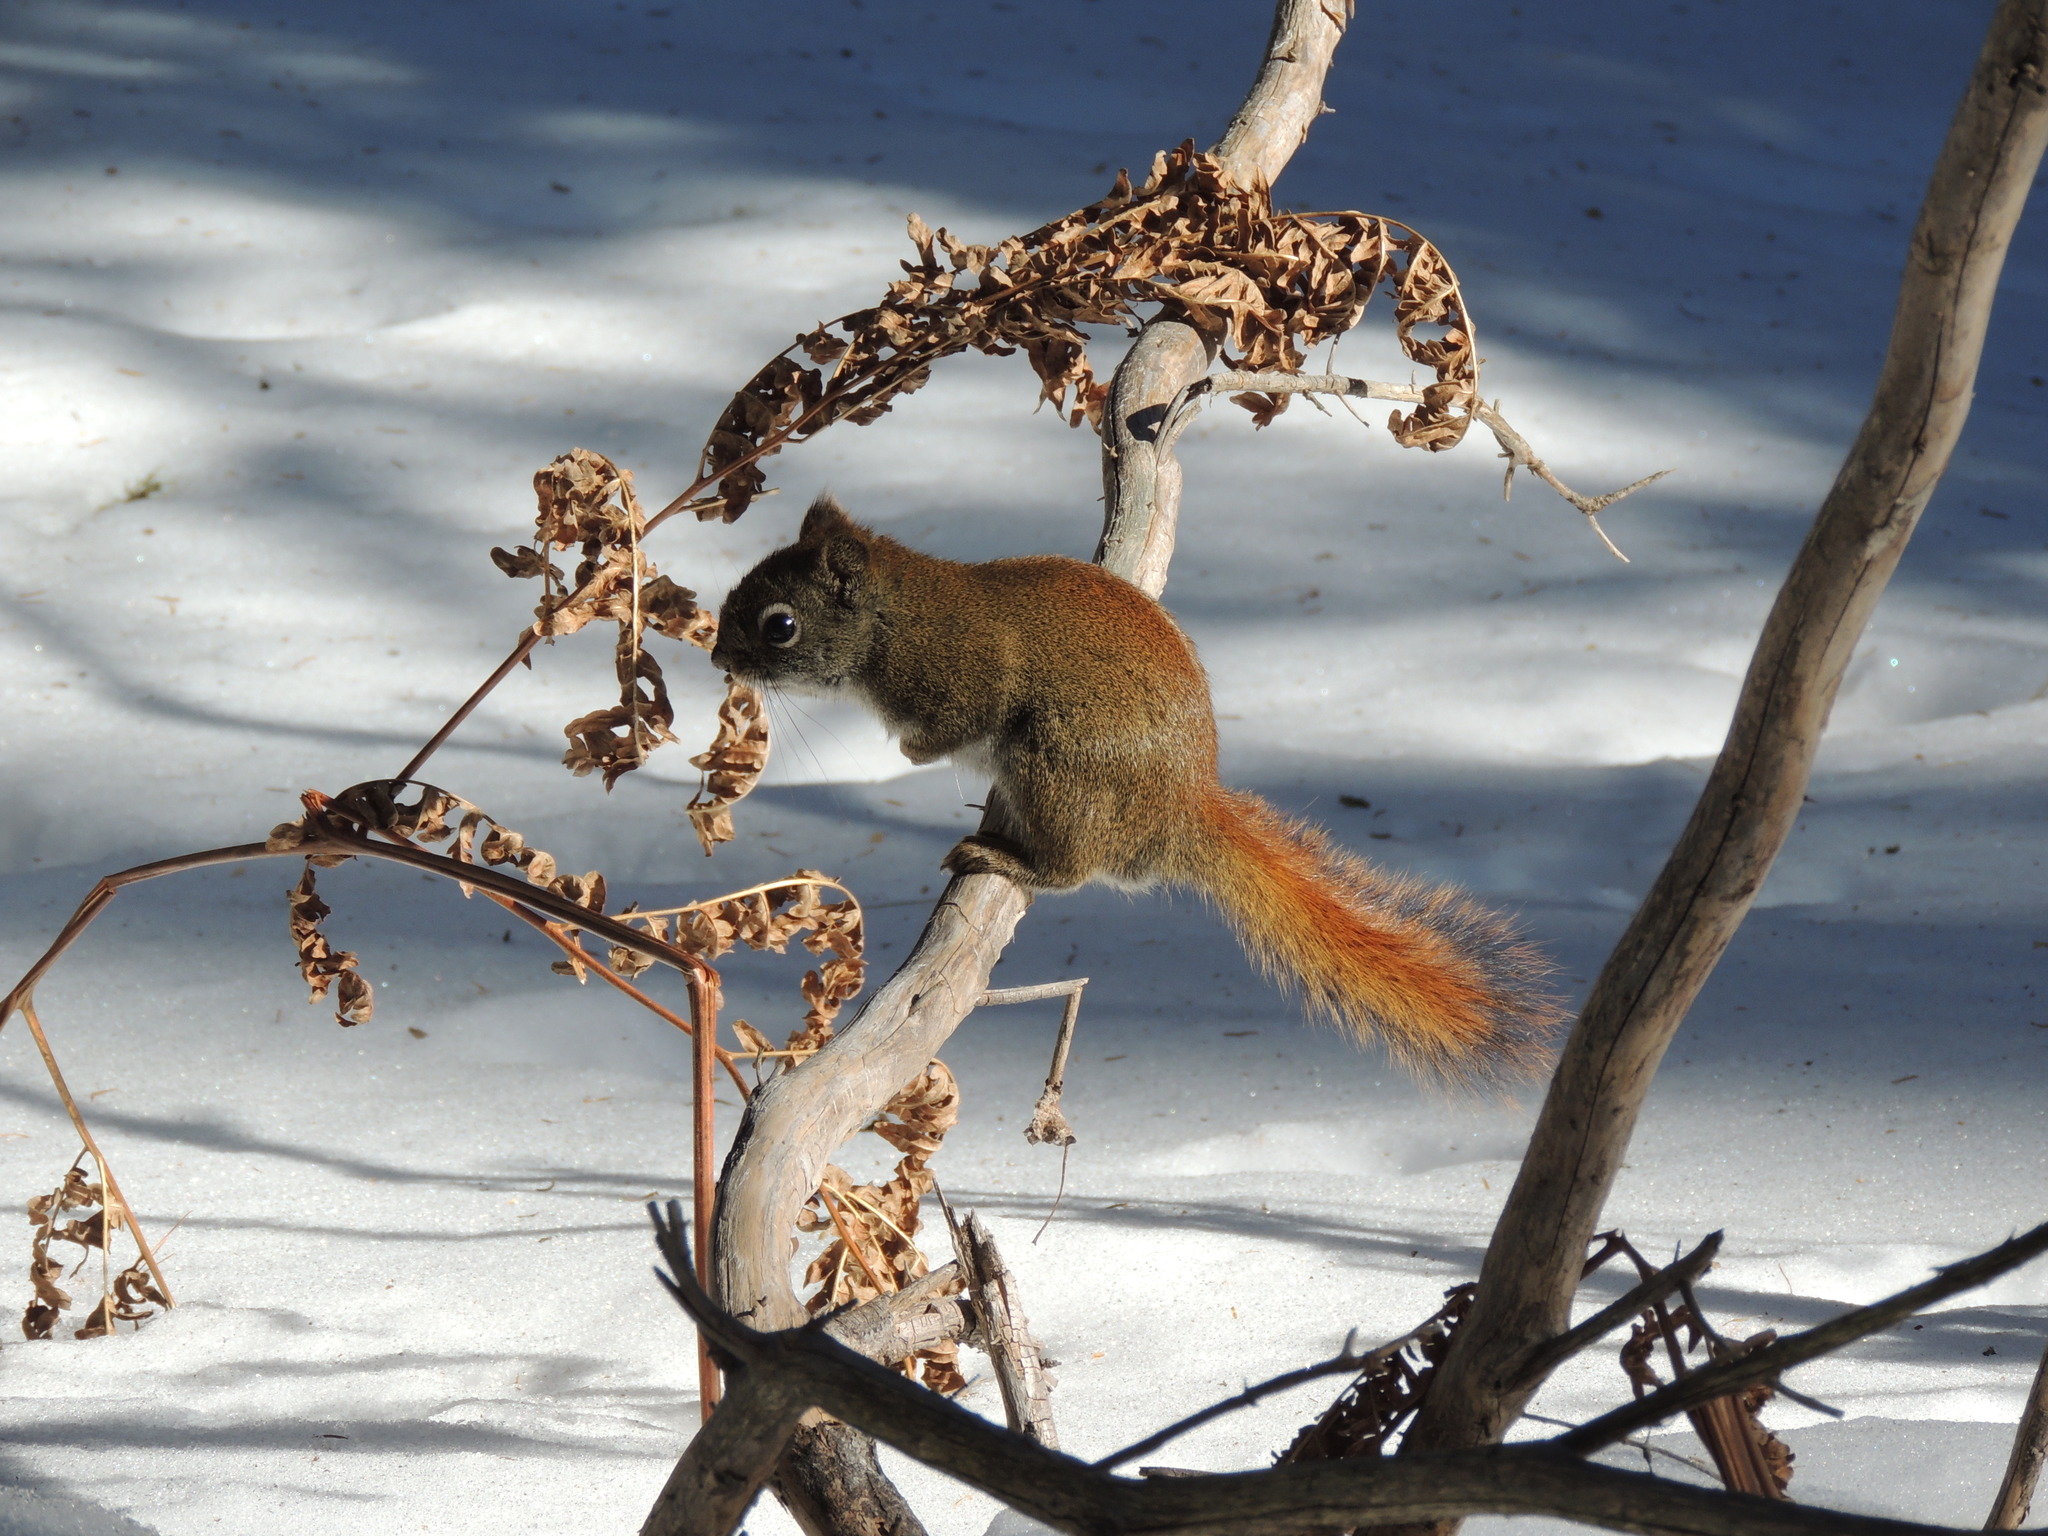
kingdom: Animalia
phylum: Chordata
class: Mammalia
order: Rodentia
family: Sciuridae
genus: Tamiasciurus
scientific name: Tamiasciurus hudsonicus
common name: Red squirrel
